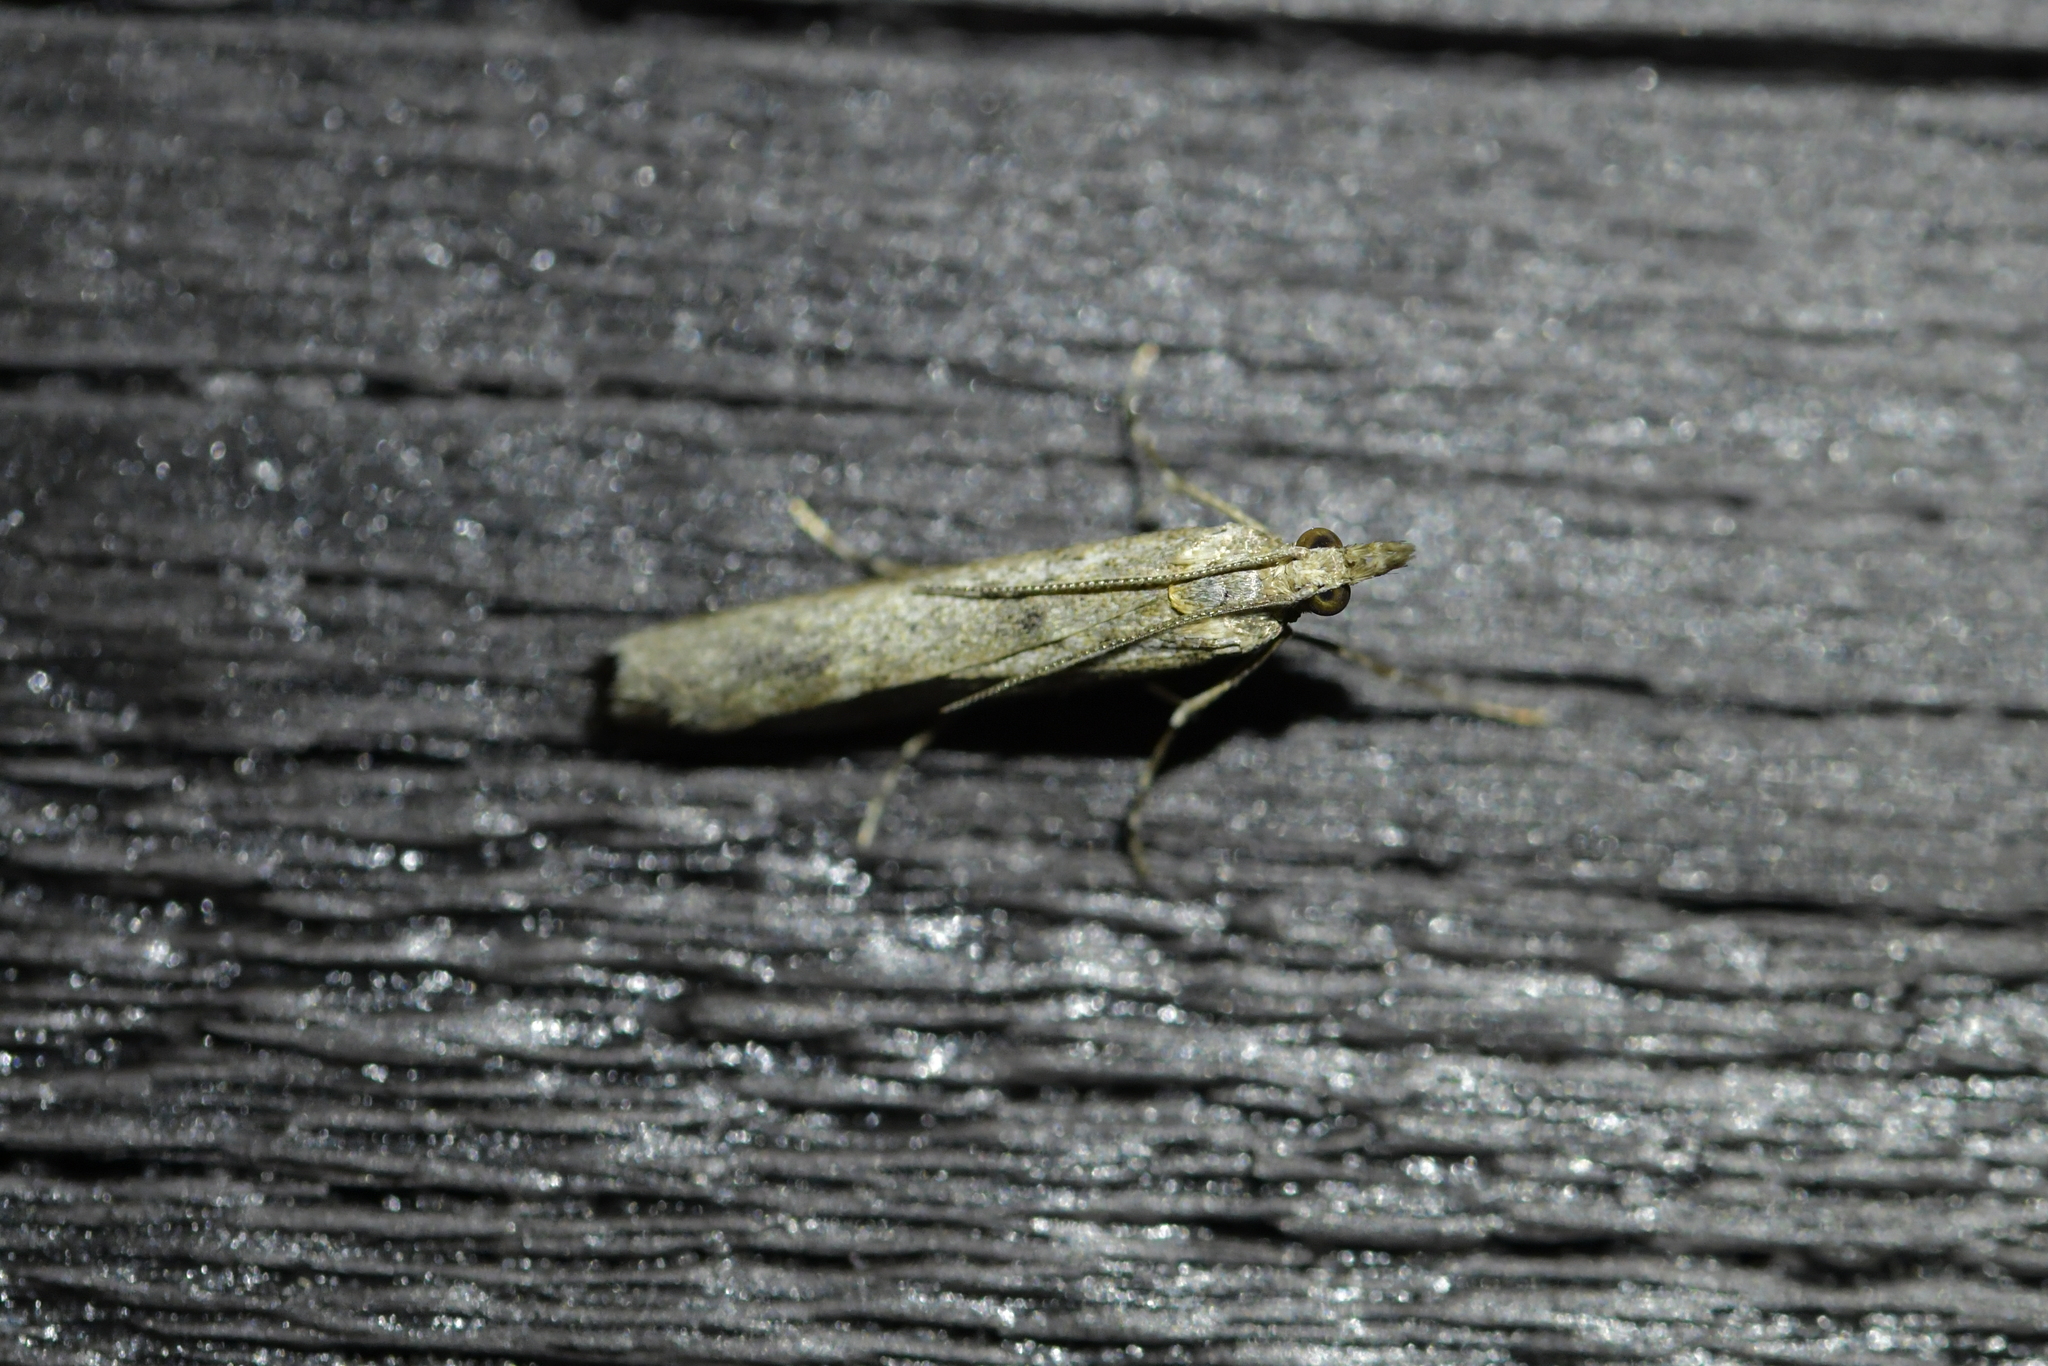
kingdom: Animalia
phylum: Arthropoda
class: Insecta
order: Lepidoptera
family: Crambidae
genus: Eudonia
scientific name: Eudonia leptalea
